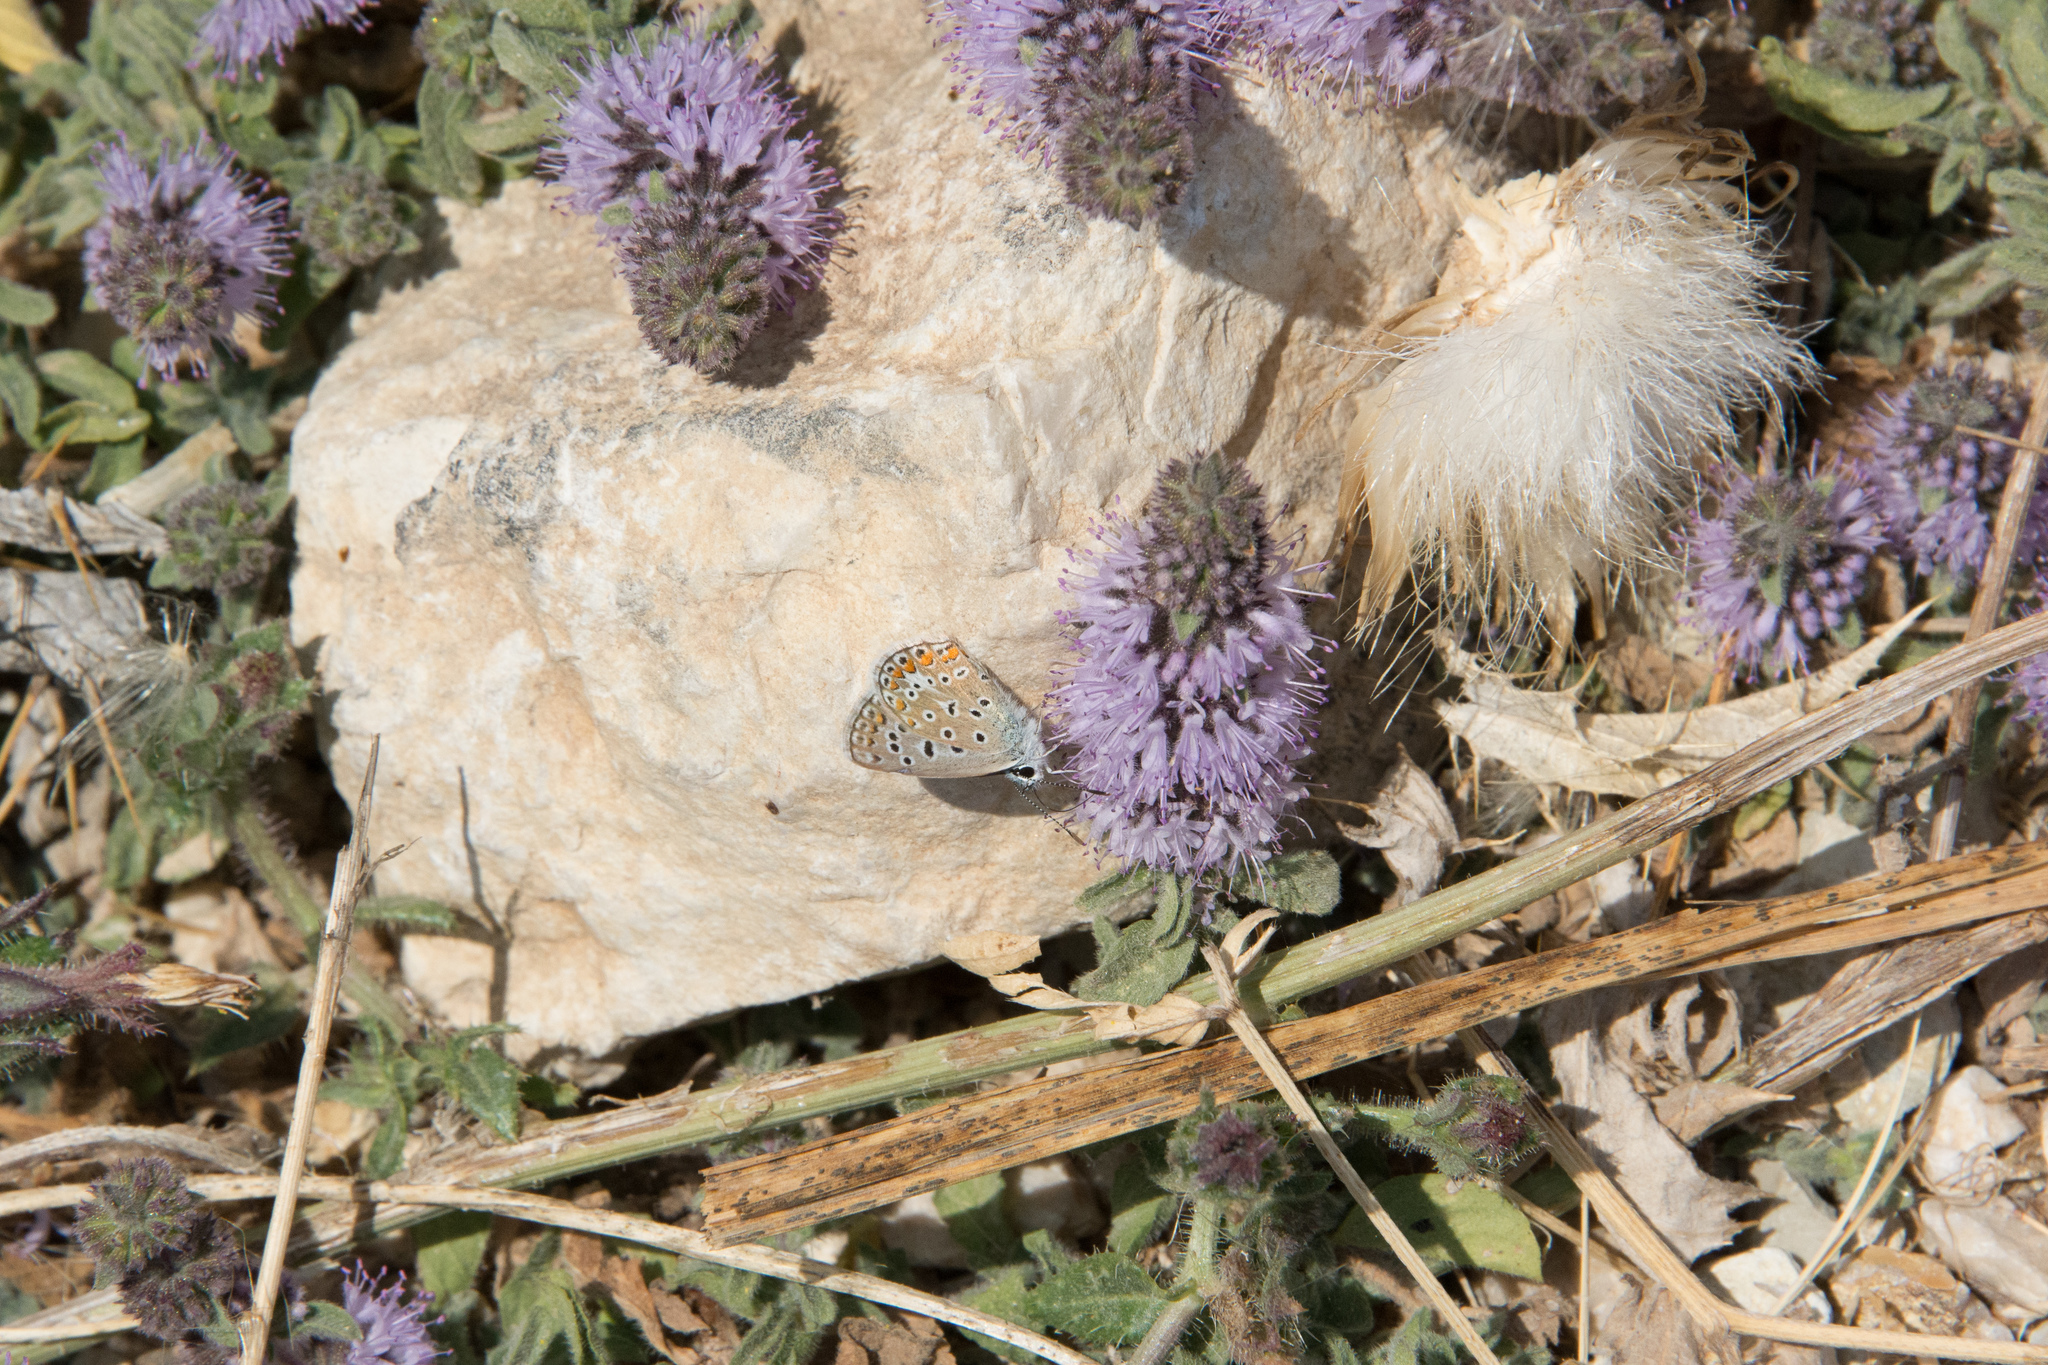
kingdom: Plantae
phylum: Tracheophyta
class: Magnoliopsida
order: Lamiales
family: Lamiaceae
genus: Mentha
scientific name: Mentha pulegium
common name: Pennyroyal
